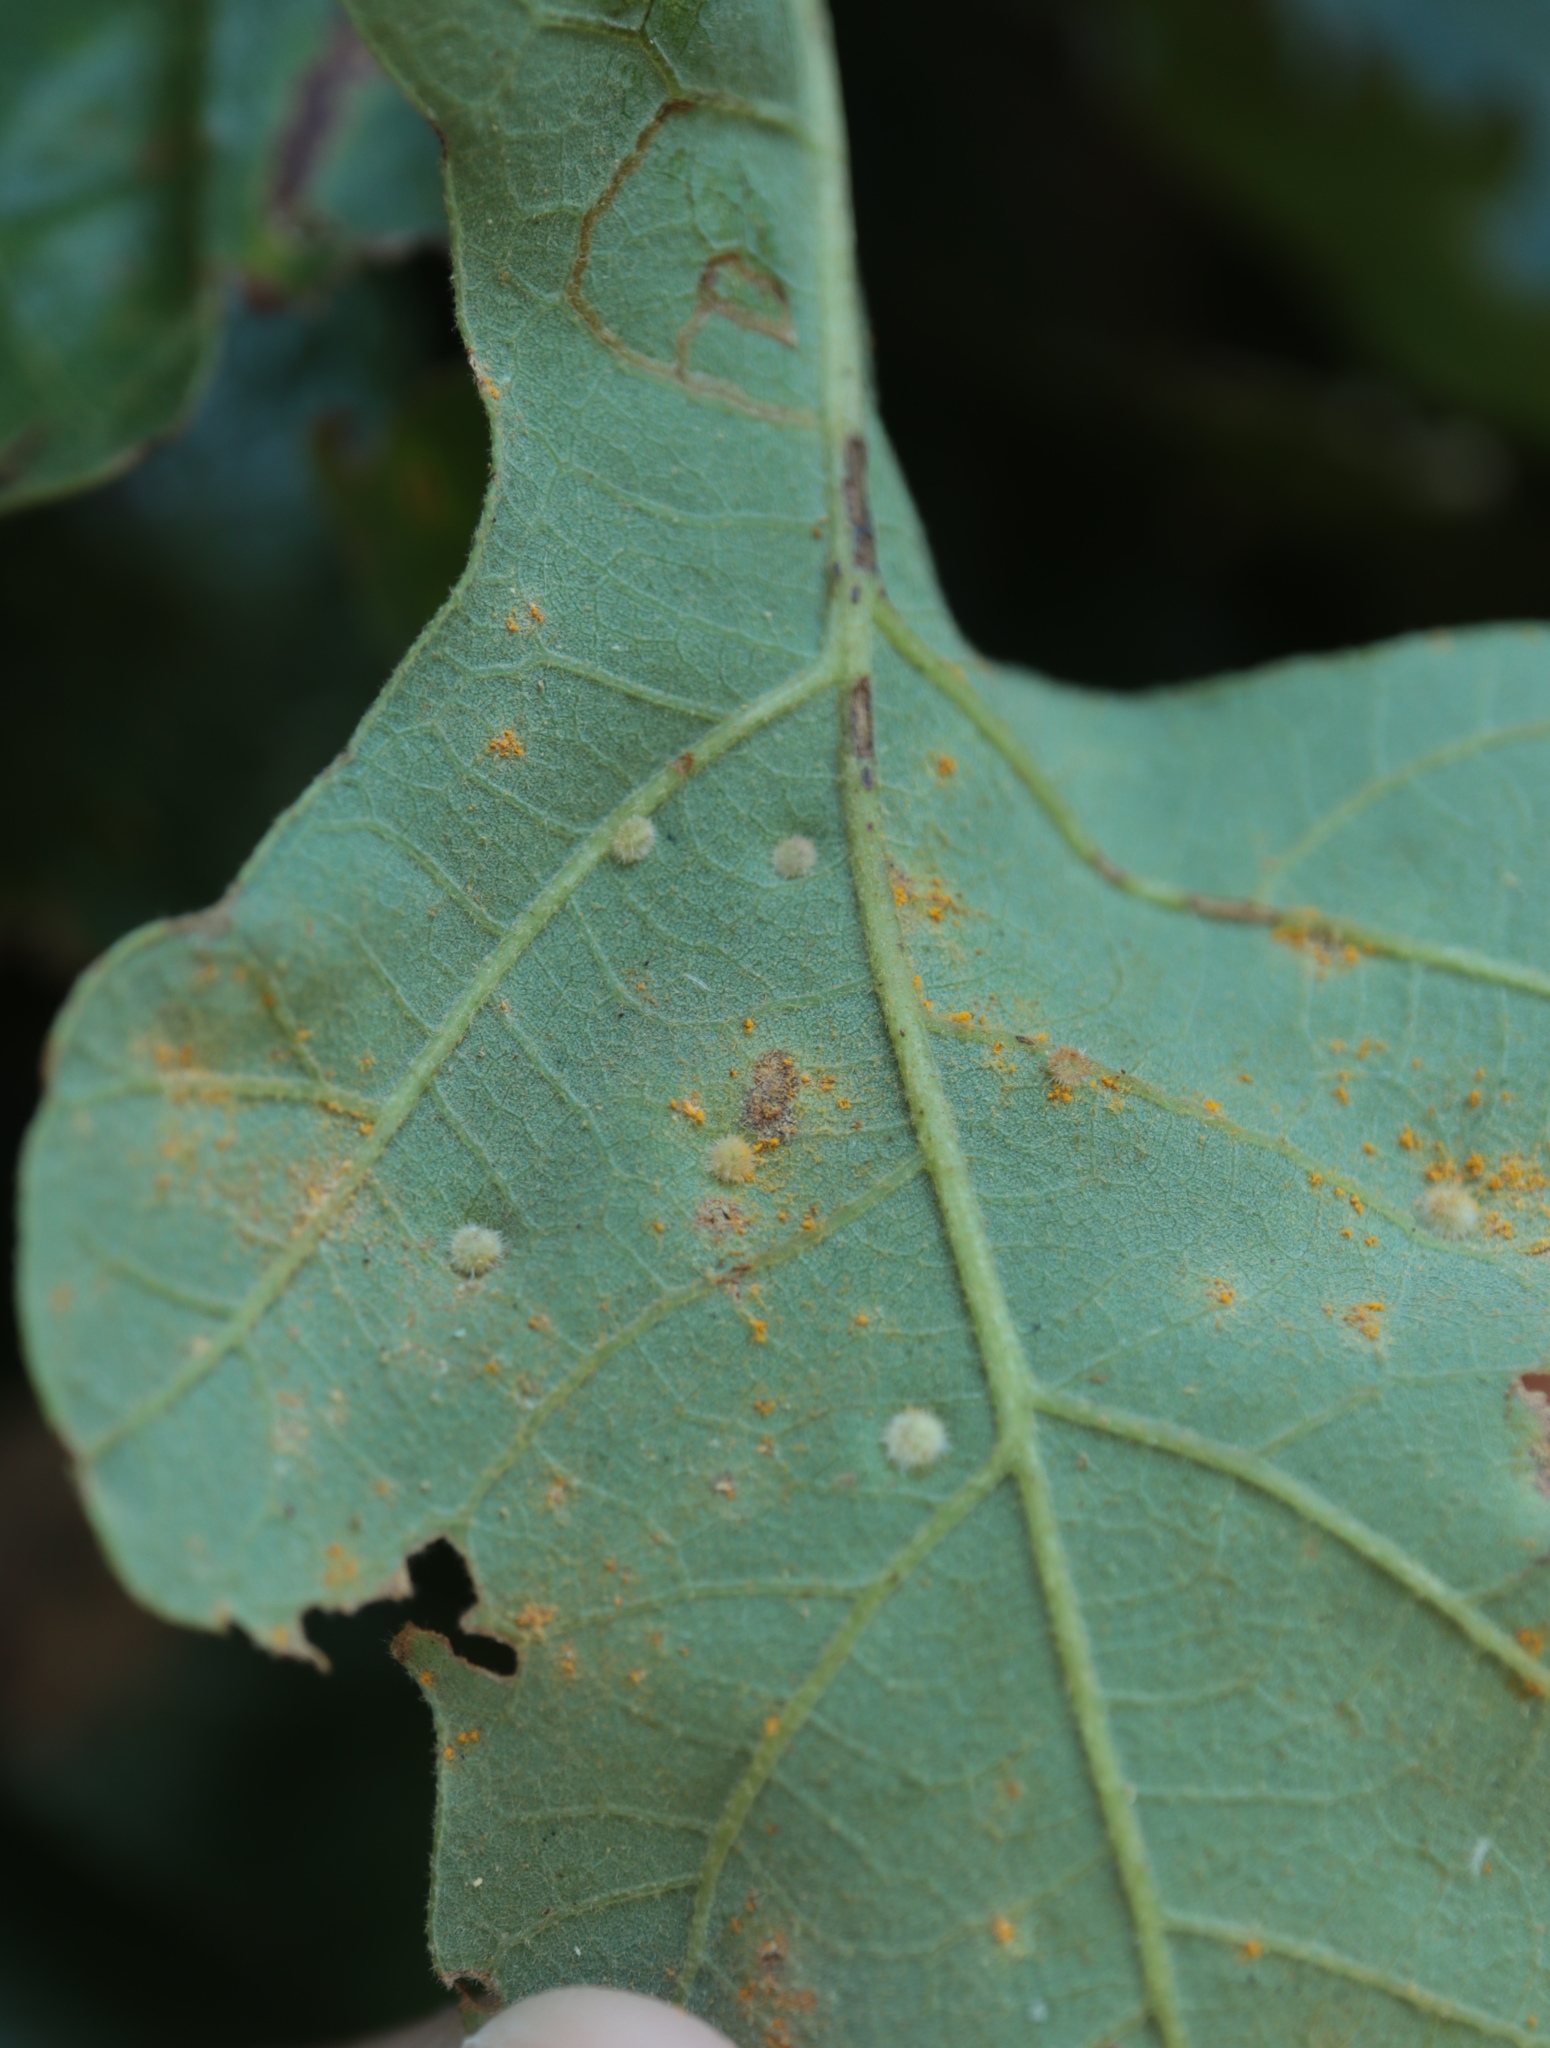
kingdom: Animalia
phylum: Arthropoda
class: Insecta
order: Hymenoptera
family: Cynipidae
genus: Neuroterus
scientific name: Neuroterus quercusverrucarum
